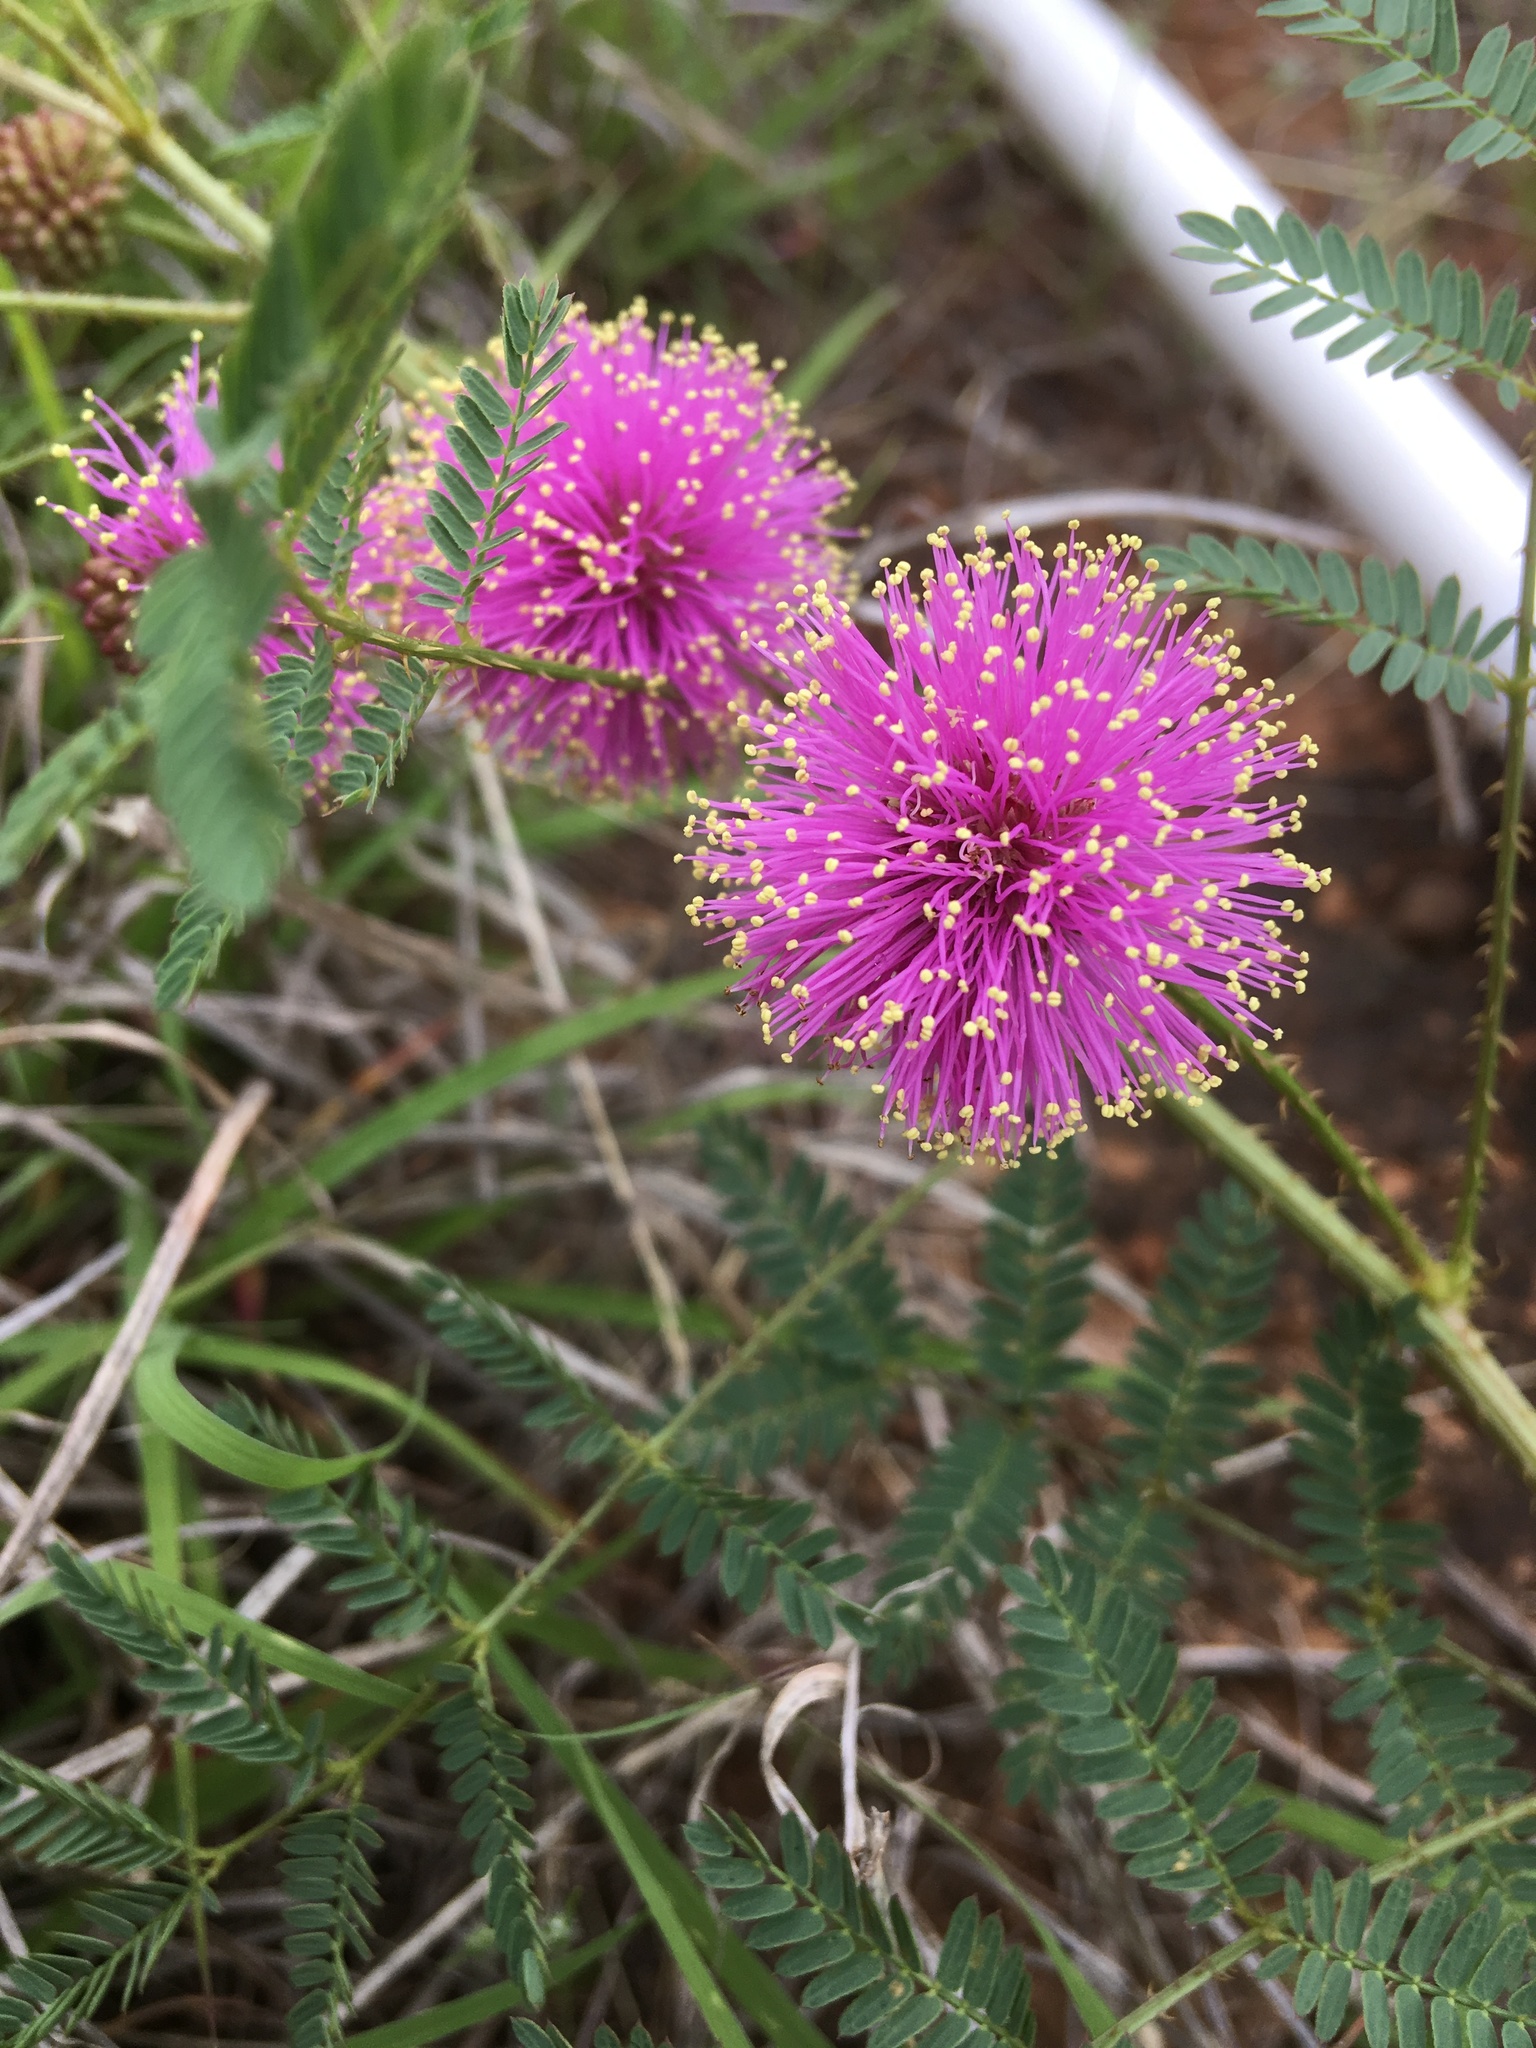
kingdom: Plantae
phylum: Tracheophyta
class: Magnoliopsida
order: Fabales
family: Fabaceae
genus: Mimosa
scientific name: Mimosa quadrivalvis
